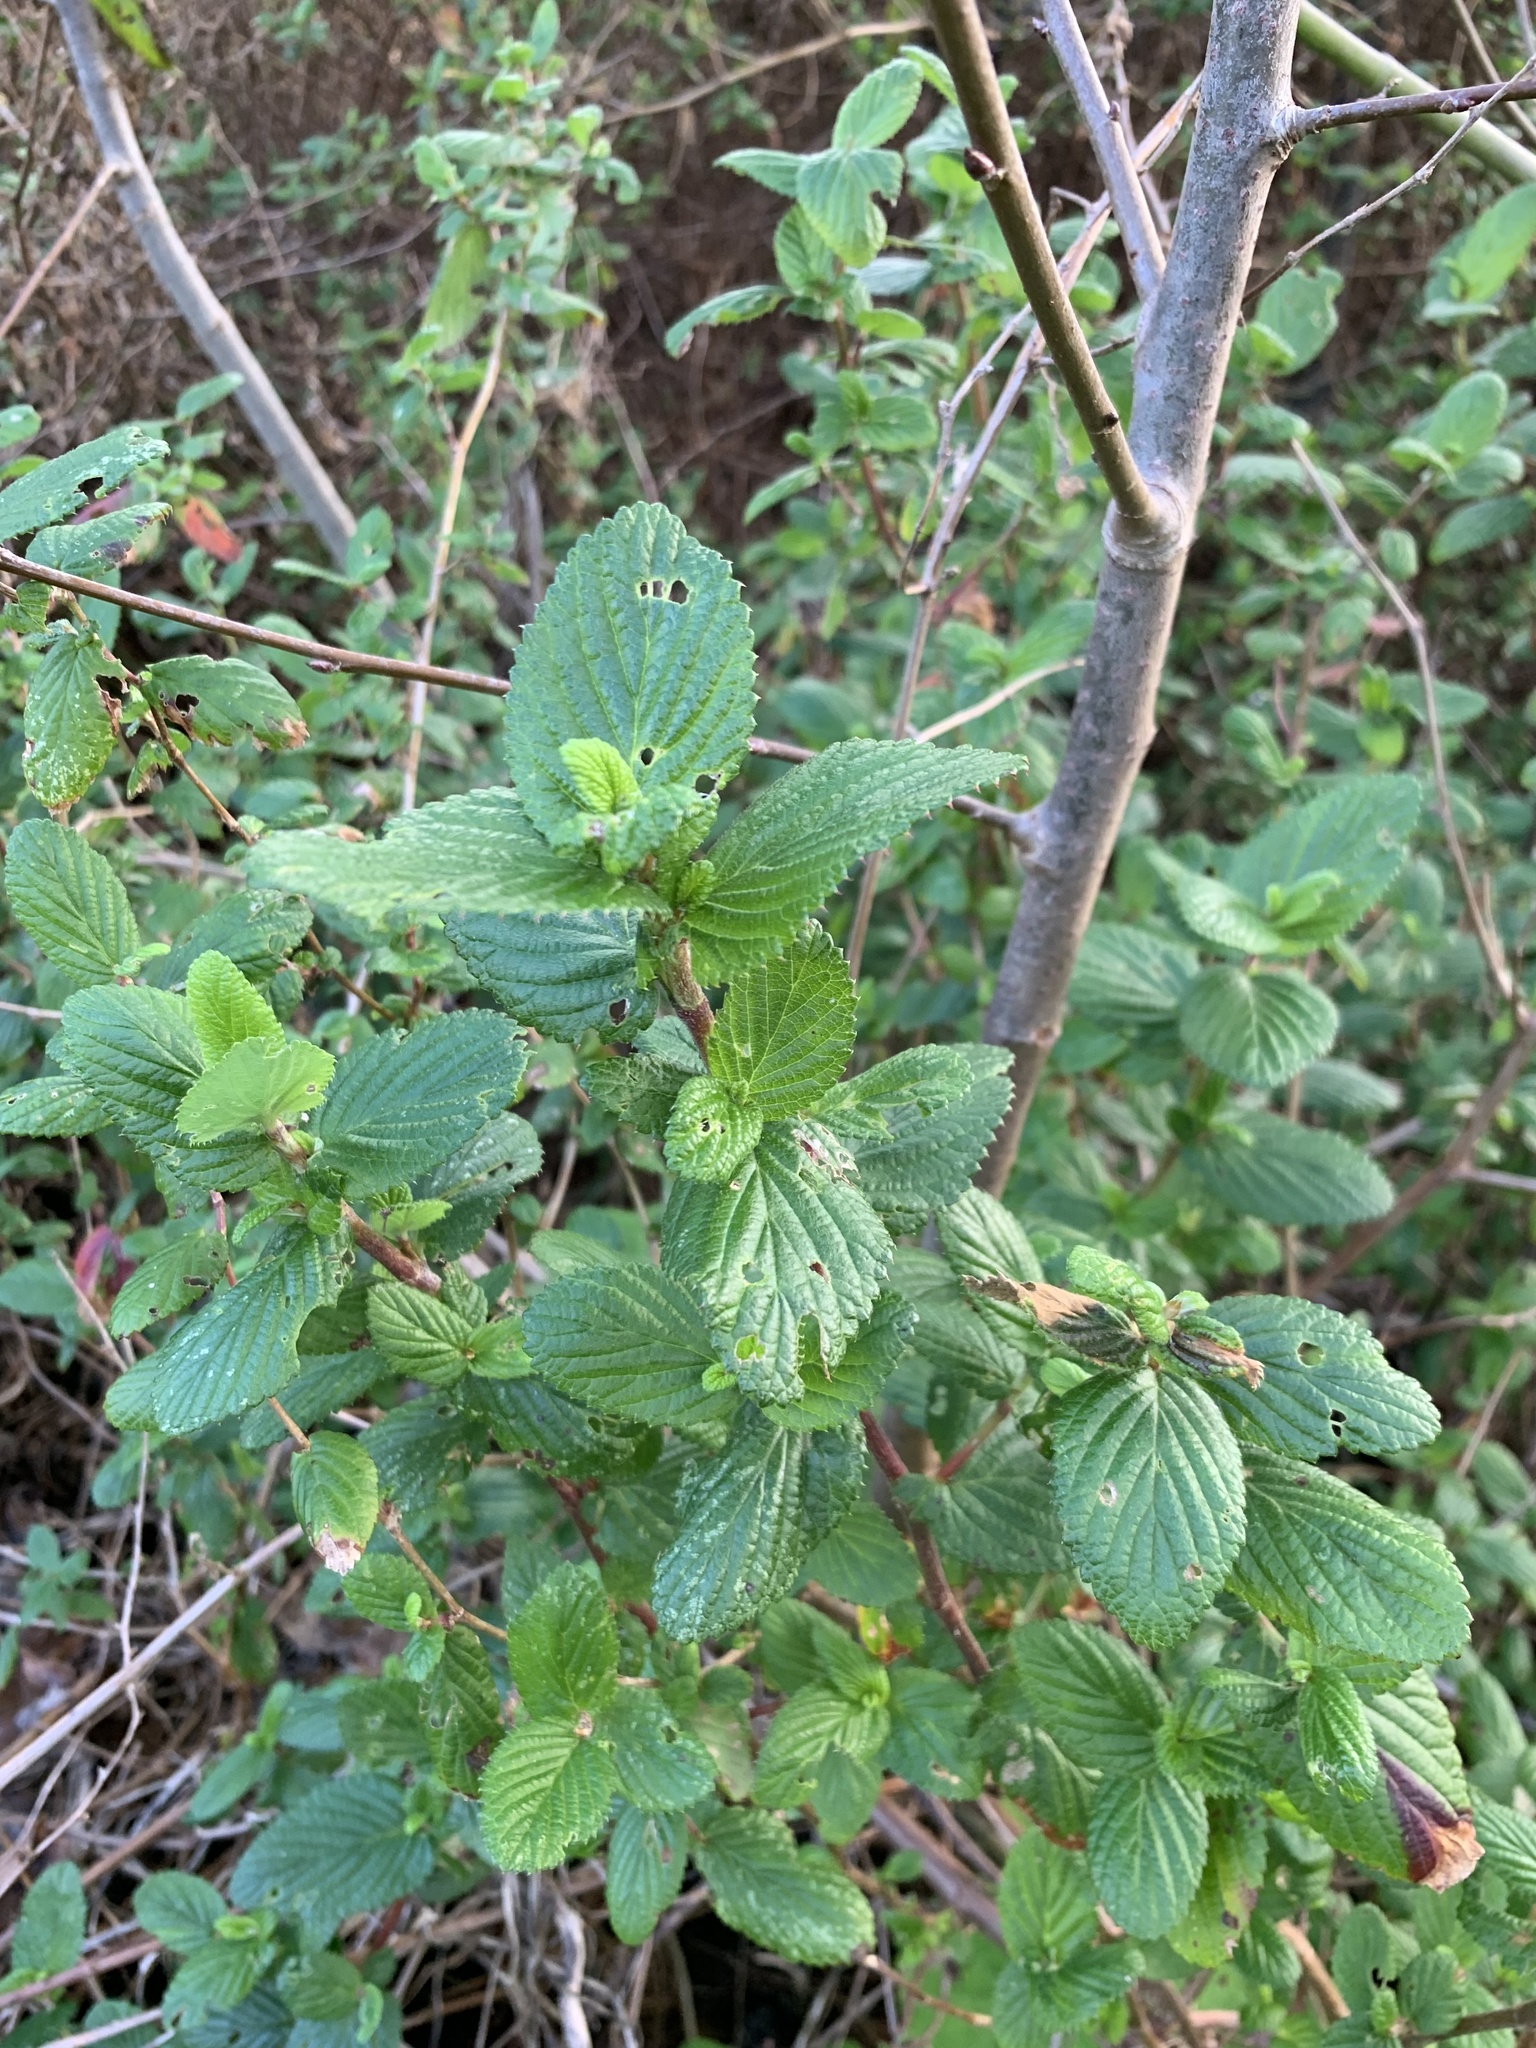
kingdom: Plantae
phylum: Tracheophyta
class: Magnoliopsida
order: Rosales
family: Rosaceae
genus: Cliffortia
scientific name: Cliffortia odorata
